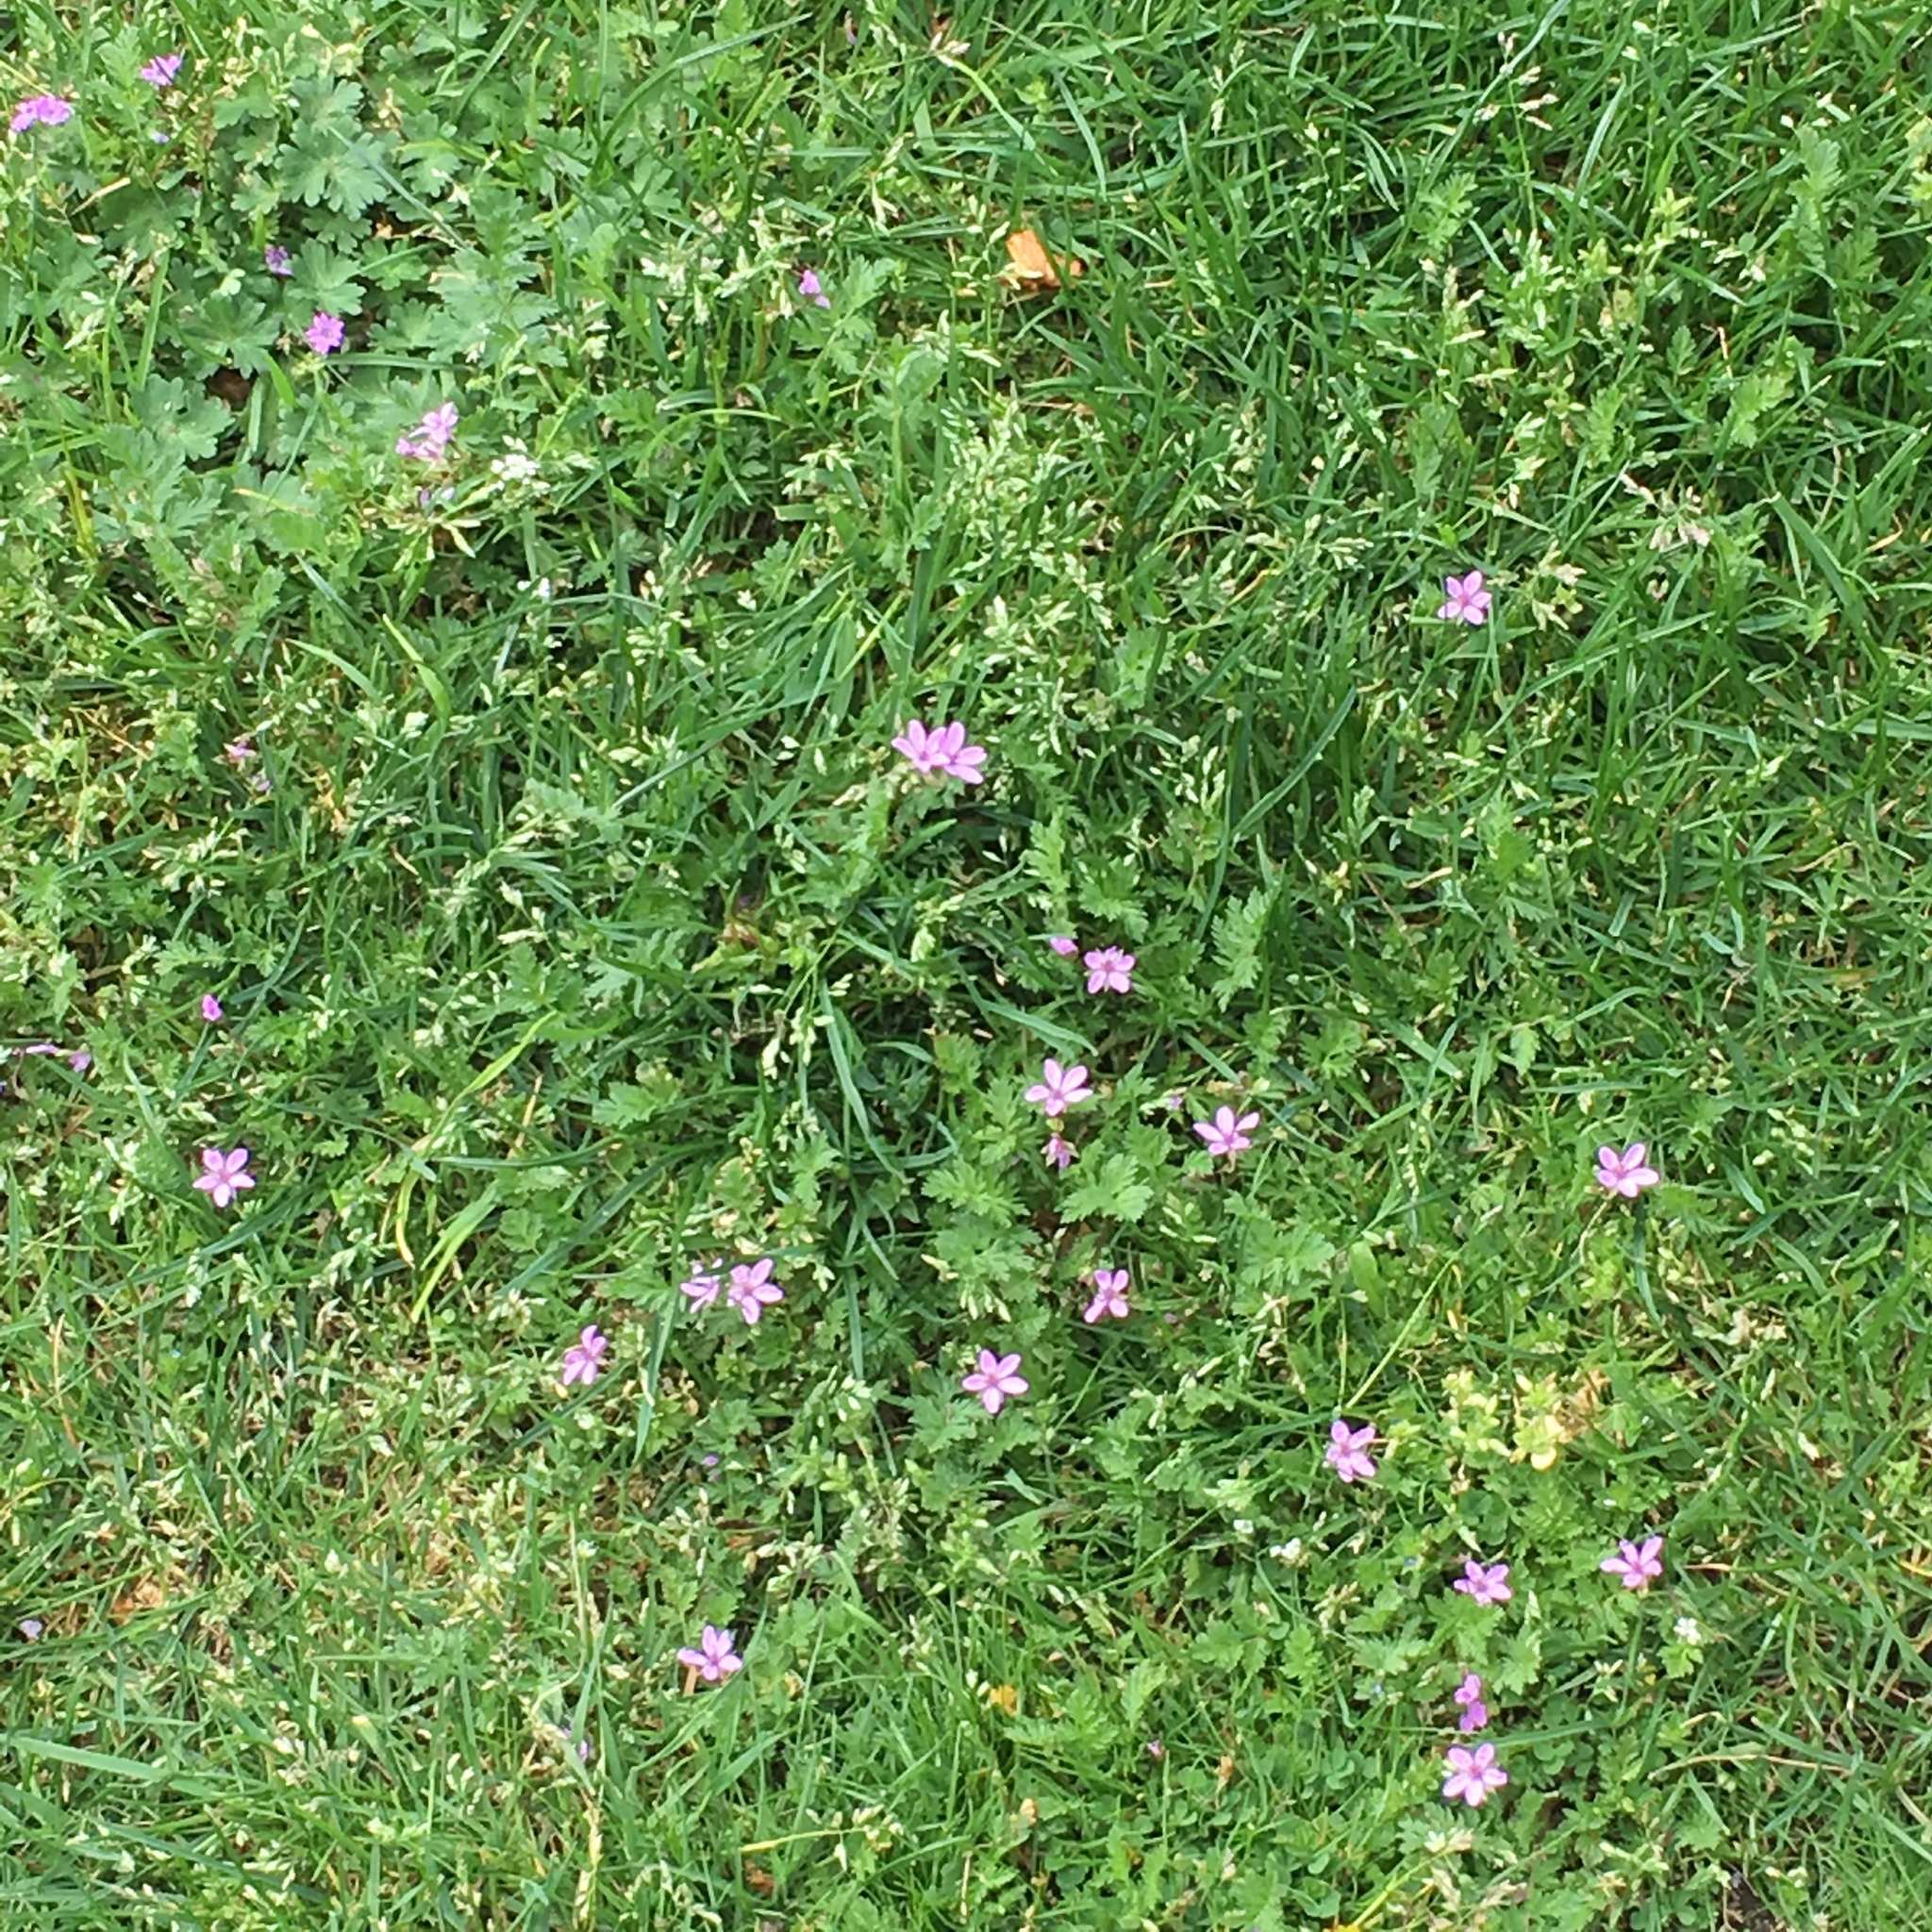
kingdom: Plantae
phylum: Tracheophyta
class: Magnoliopsida
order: Geraniales
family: Geraniaceae
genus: Erodium
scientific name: Erodium cicutarium
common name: Common stork's-bill
